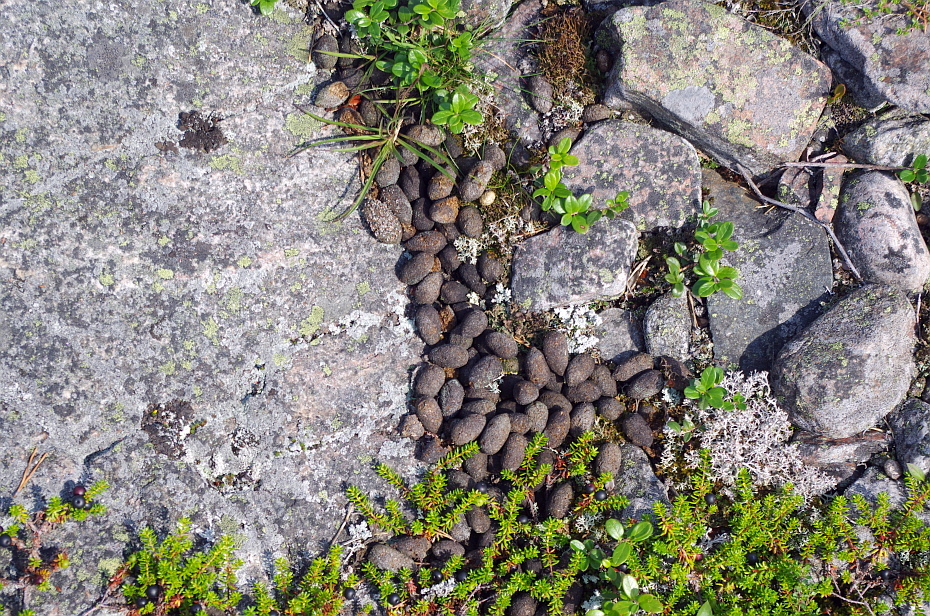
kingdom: Animalia
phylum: Chordata
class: Mammalia
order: Artiodactyla
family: Cervidae
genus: Alces
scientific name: Alces alces
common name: Moose
